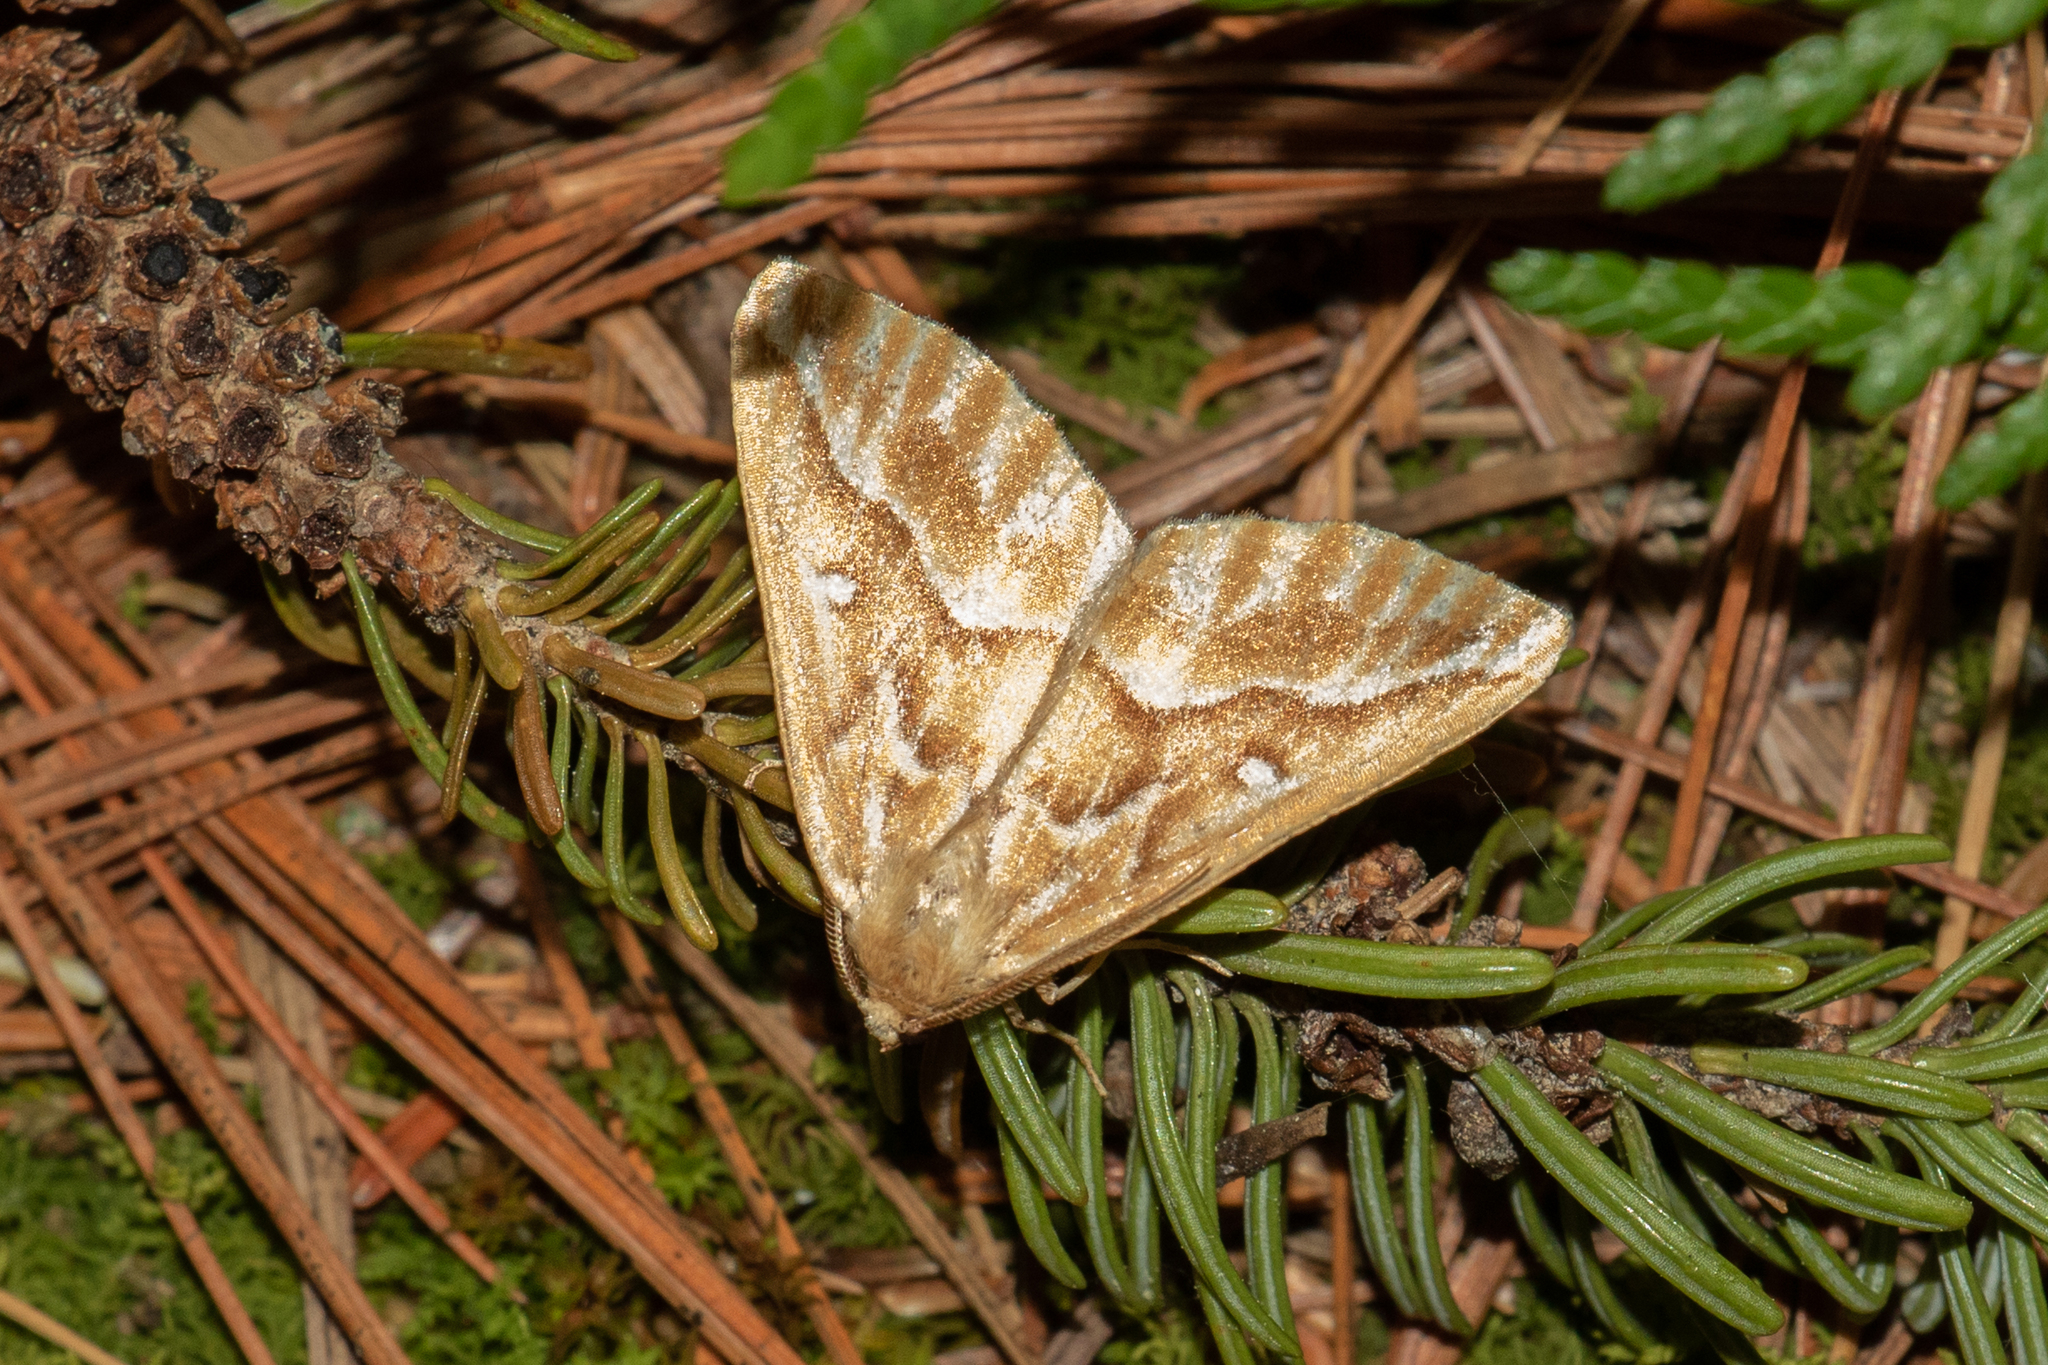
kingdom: Animalia
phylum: Arthropoda
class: Insecta
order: Lepidoptera
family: Geometridae
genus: Caripeta
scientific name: Caripeta piniata
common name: Northern pine looper moth
